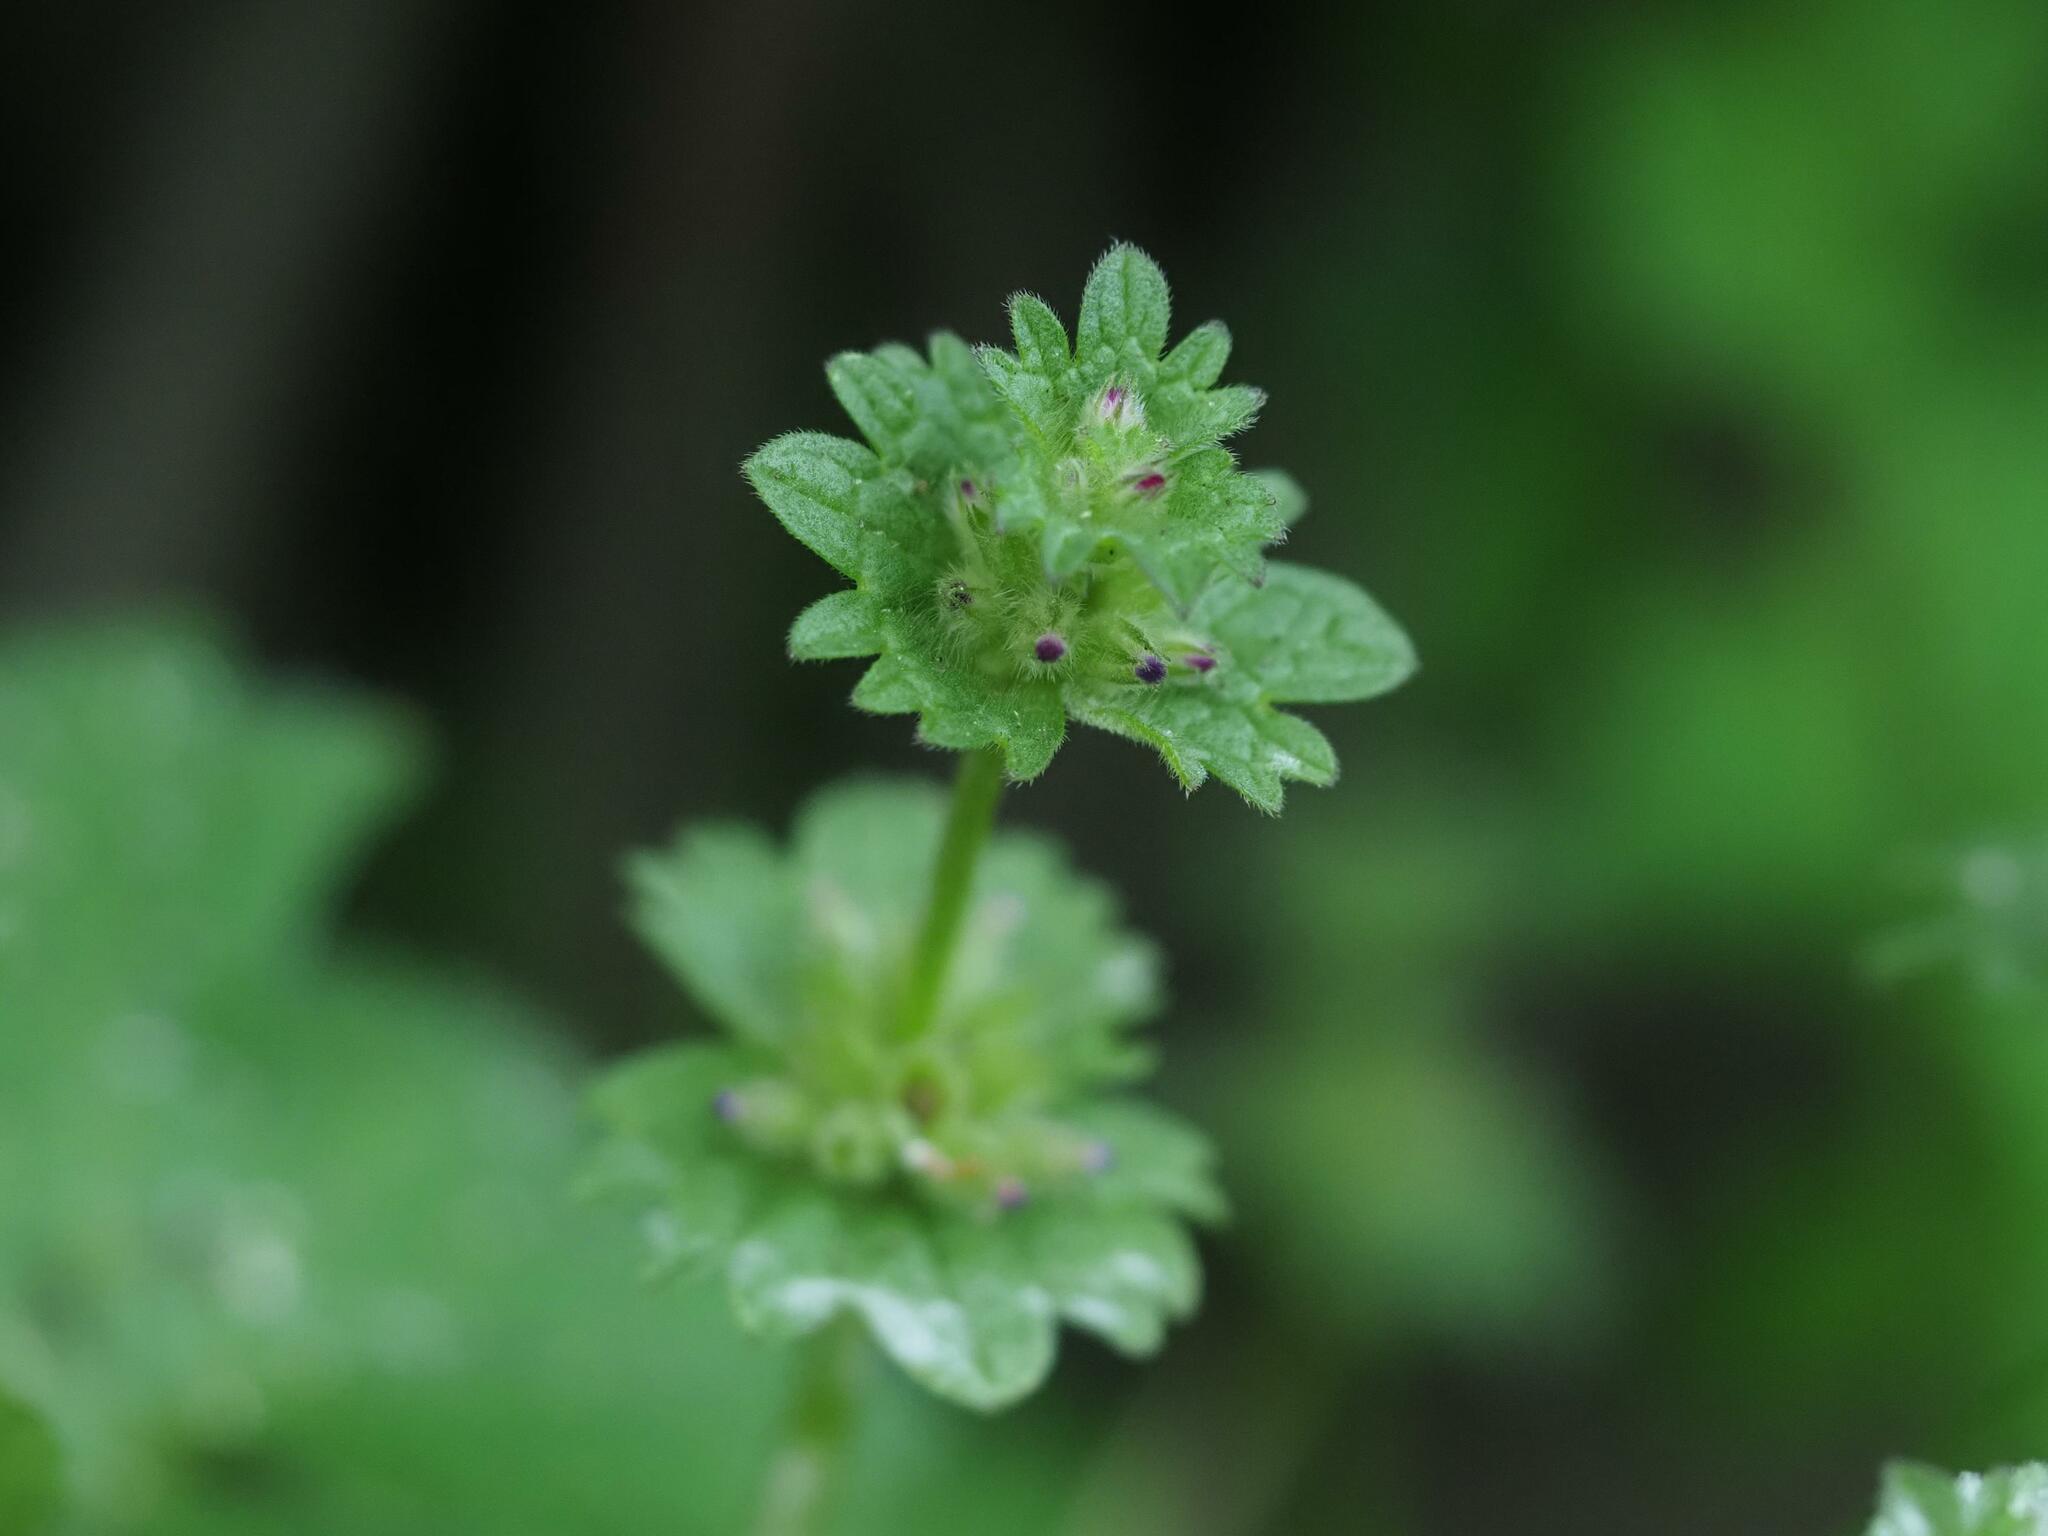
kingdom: Plantae
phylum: Tracheophyta
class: Magnoliopsida
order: Lamiales
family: Lamiaceae
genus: Lamium
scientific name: Lamium amplexicaule
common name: Henbit dead-nettle
